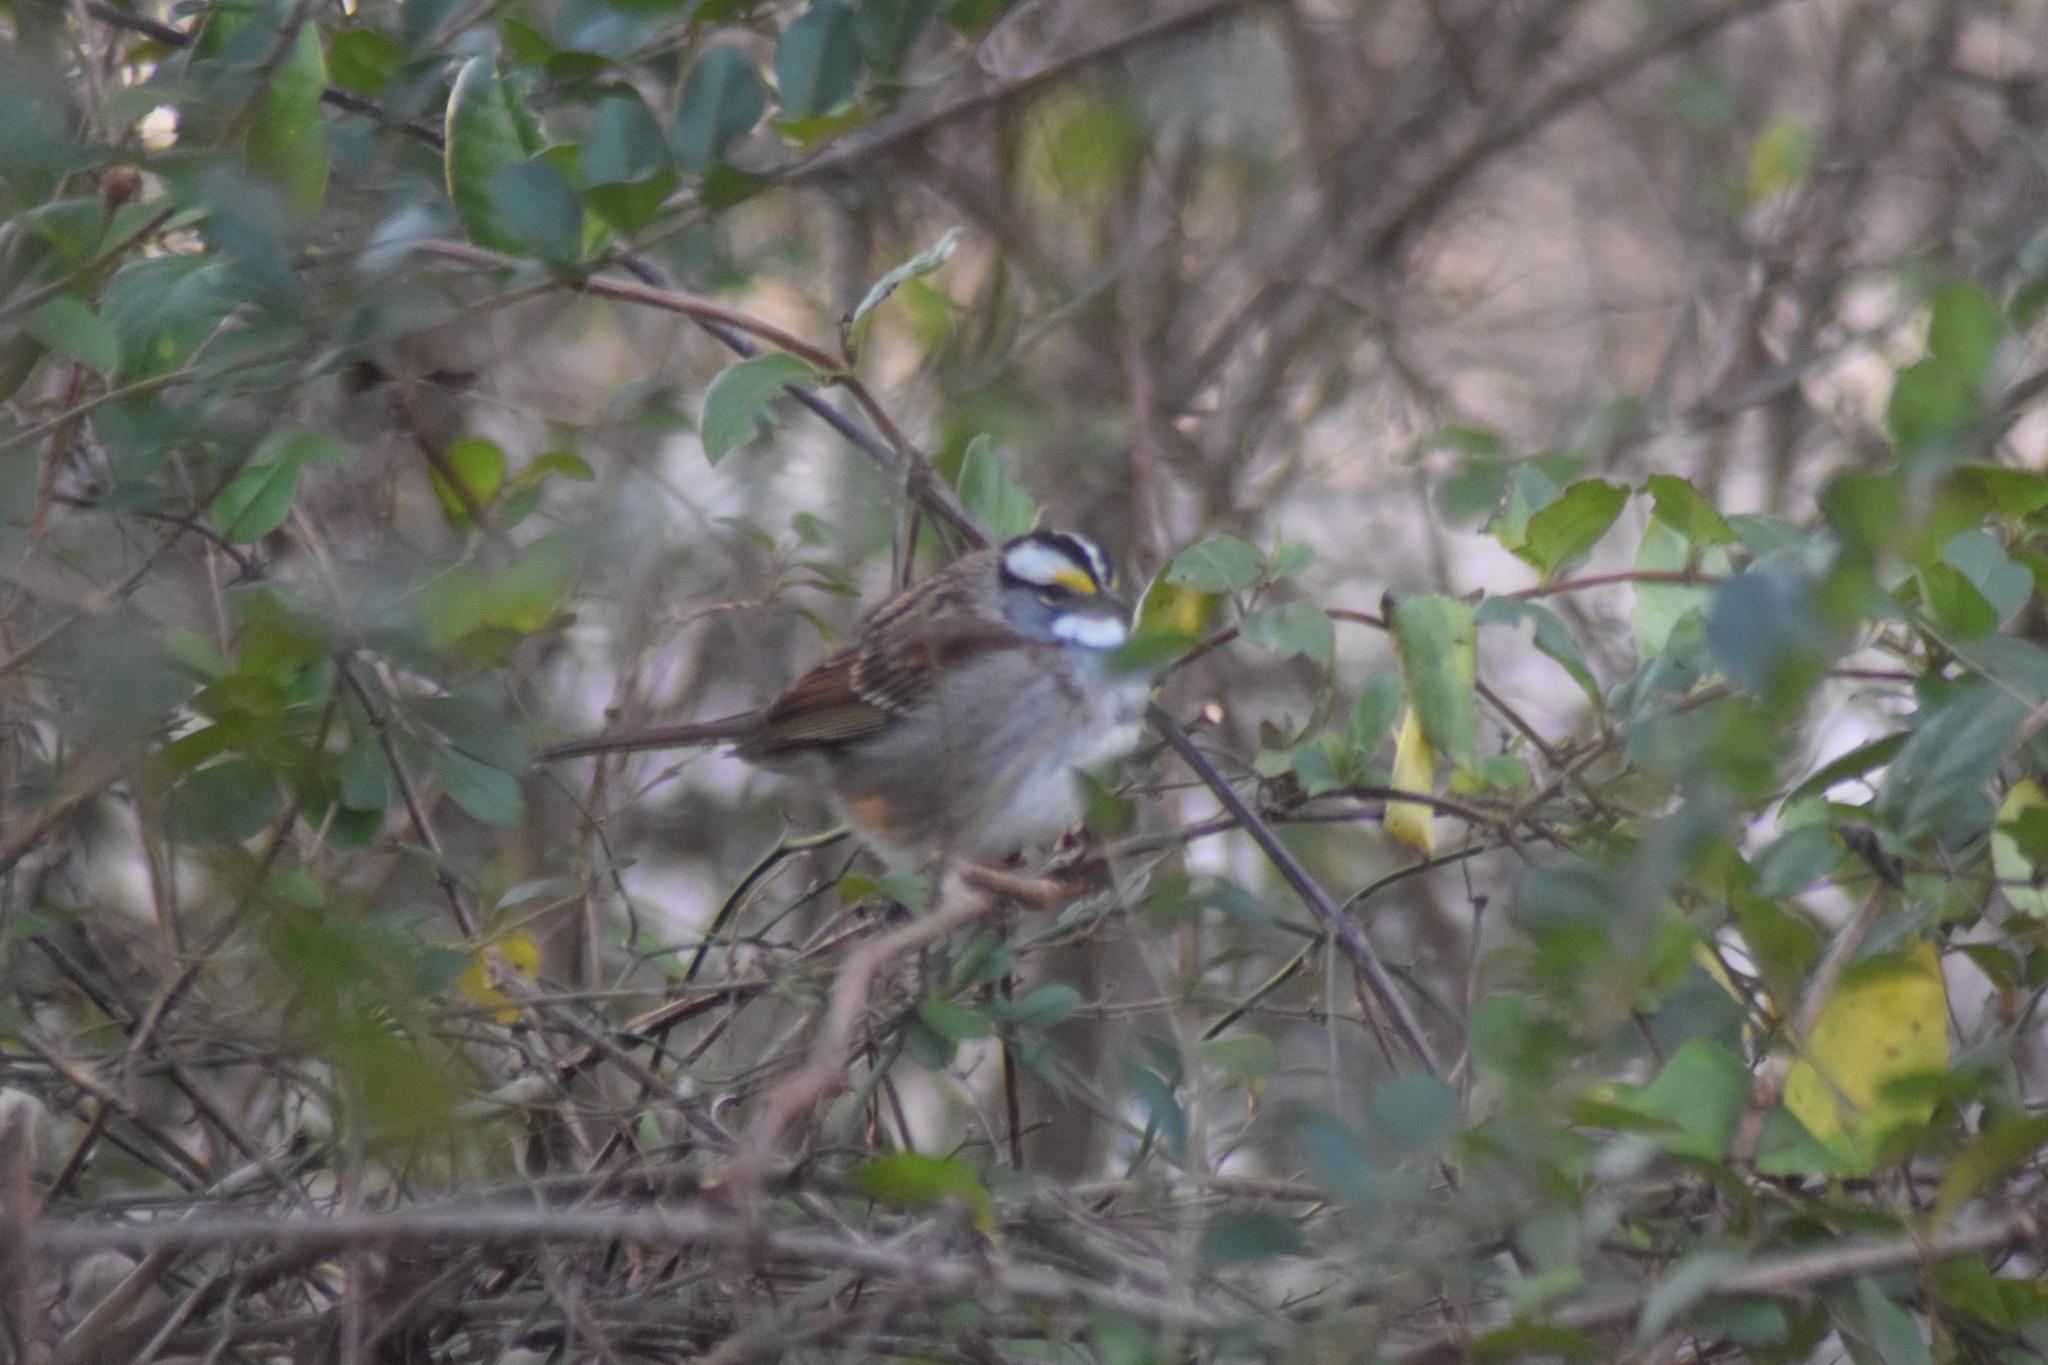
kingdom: Animalia
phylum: Chordata
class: Aves
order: Passeriformes
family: Passerellidae
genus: Zonotrichia
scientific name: Zonotrichia albicollis
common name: White-throated sparrow
